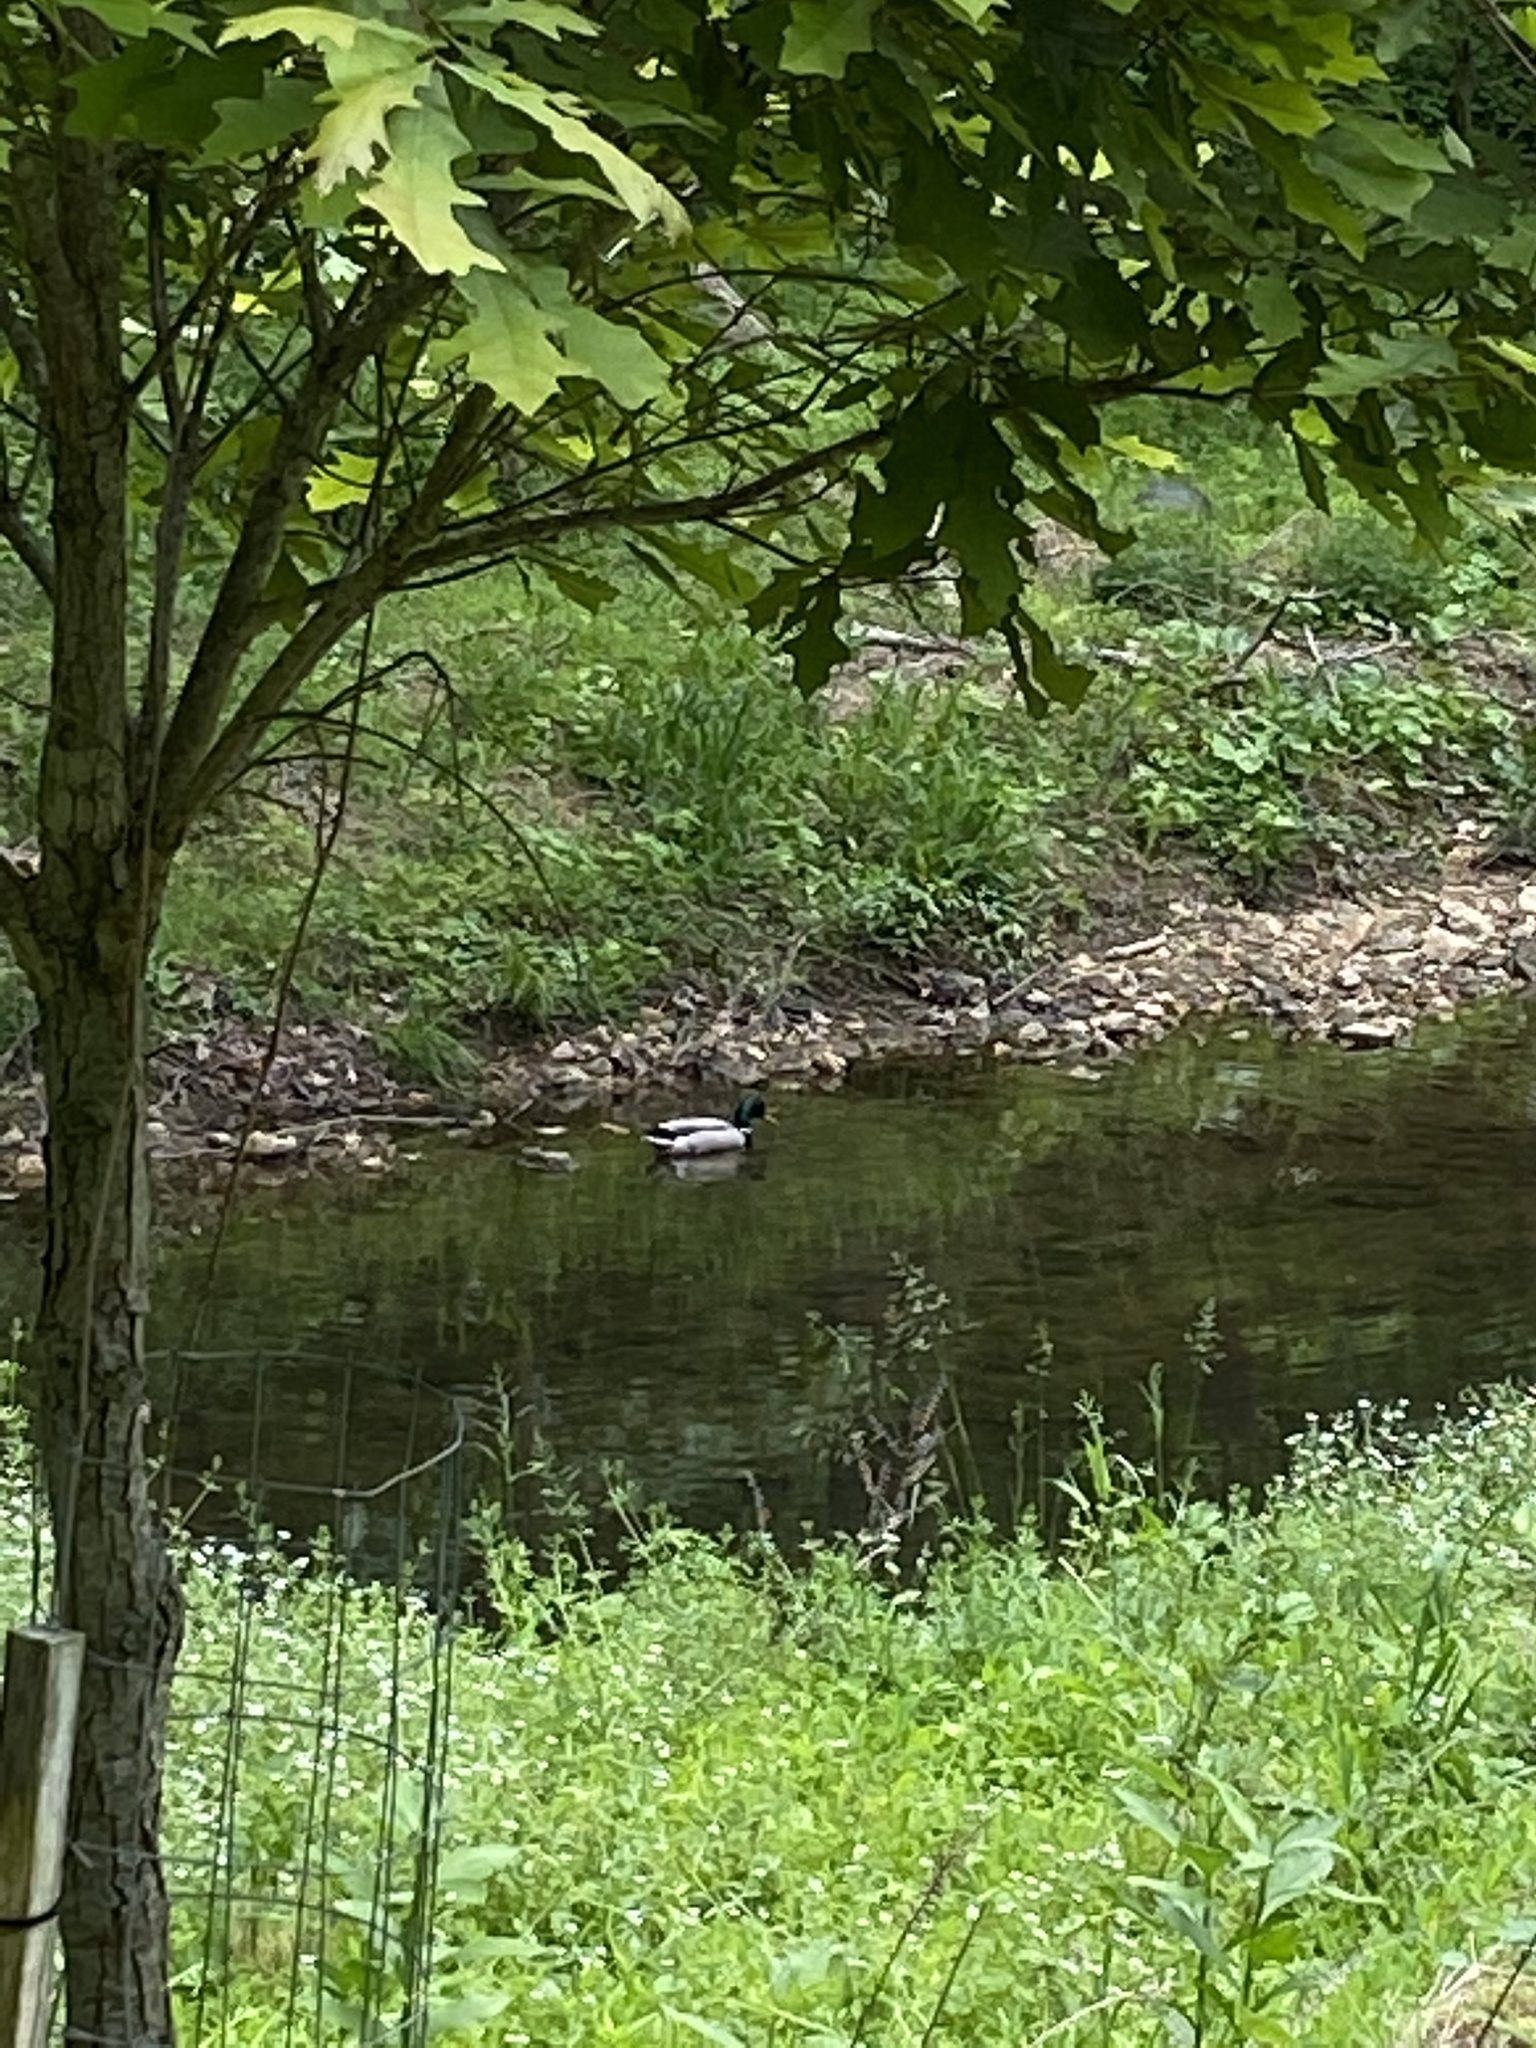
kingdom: Animalia
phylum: Chordata
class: Aves
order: Anseriformes
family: Anatidae
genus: Anas
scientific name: Anas platyrhynchos
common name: Mallard
